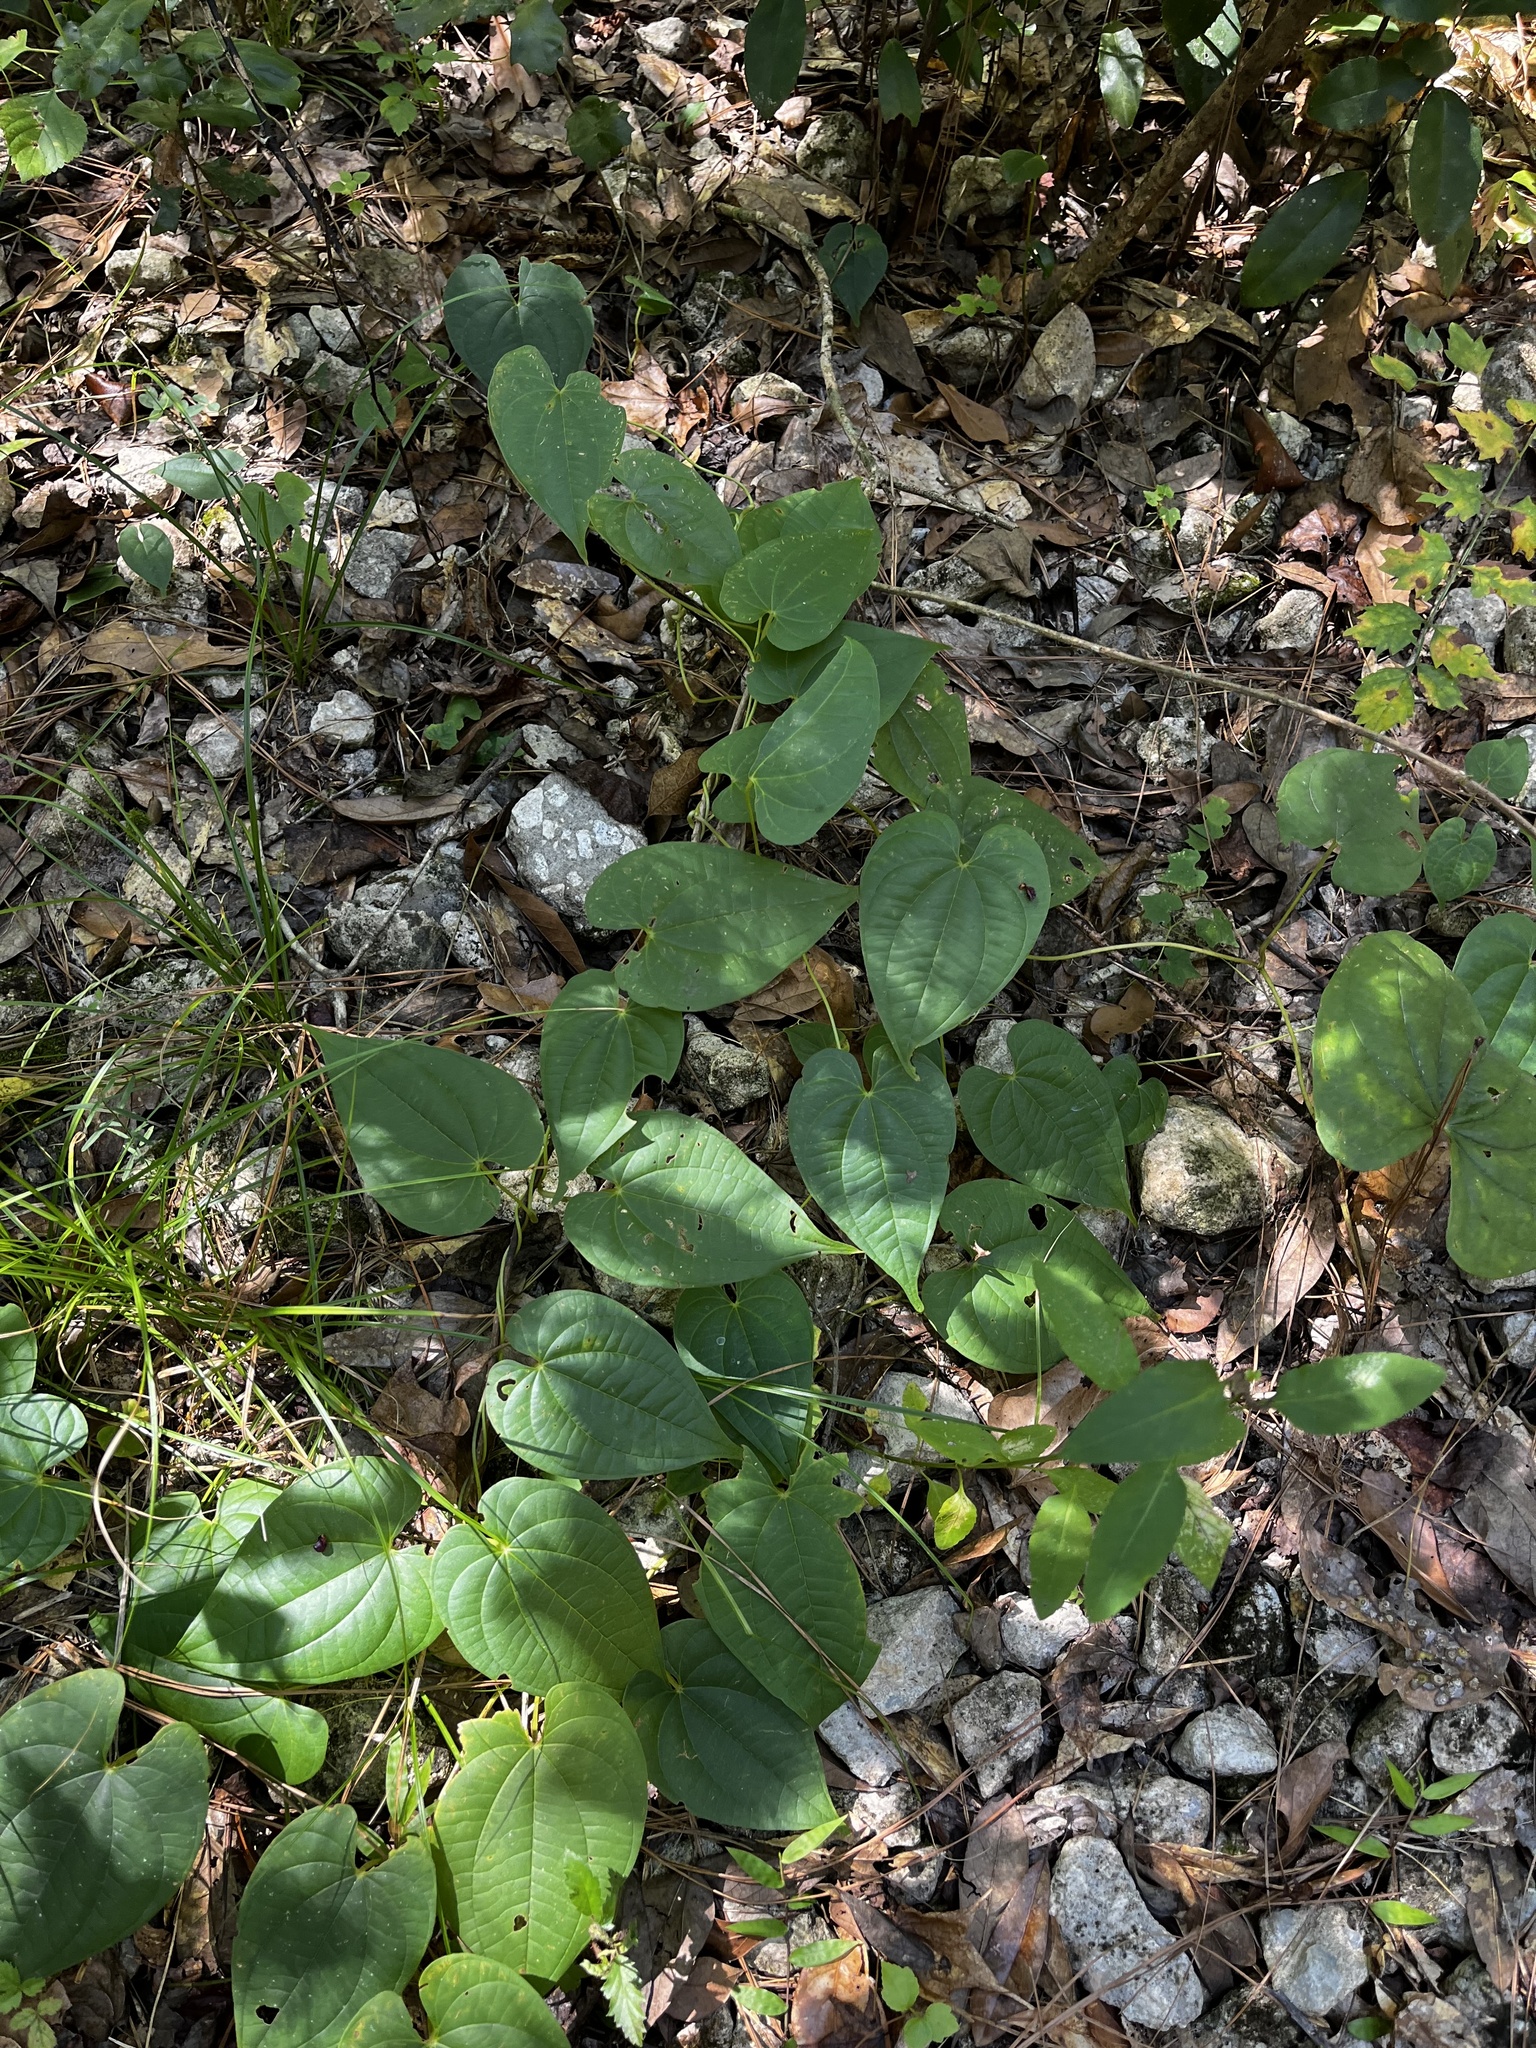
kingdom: Plantae
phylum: Tracheophyta
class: Liliopsida
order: Dioscoreales
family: Dioscoreaceae
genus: Dioscorea
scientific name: Dioscorea bulbifera
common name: Air yam
